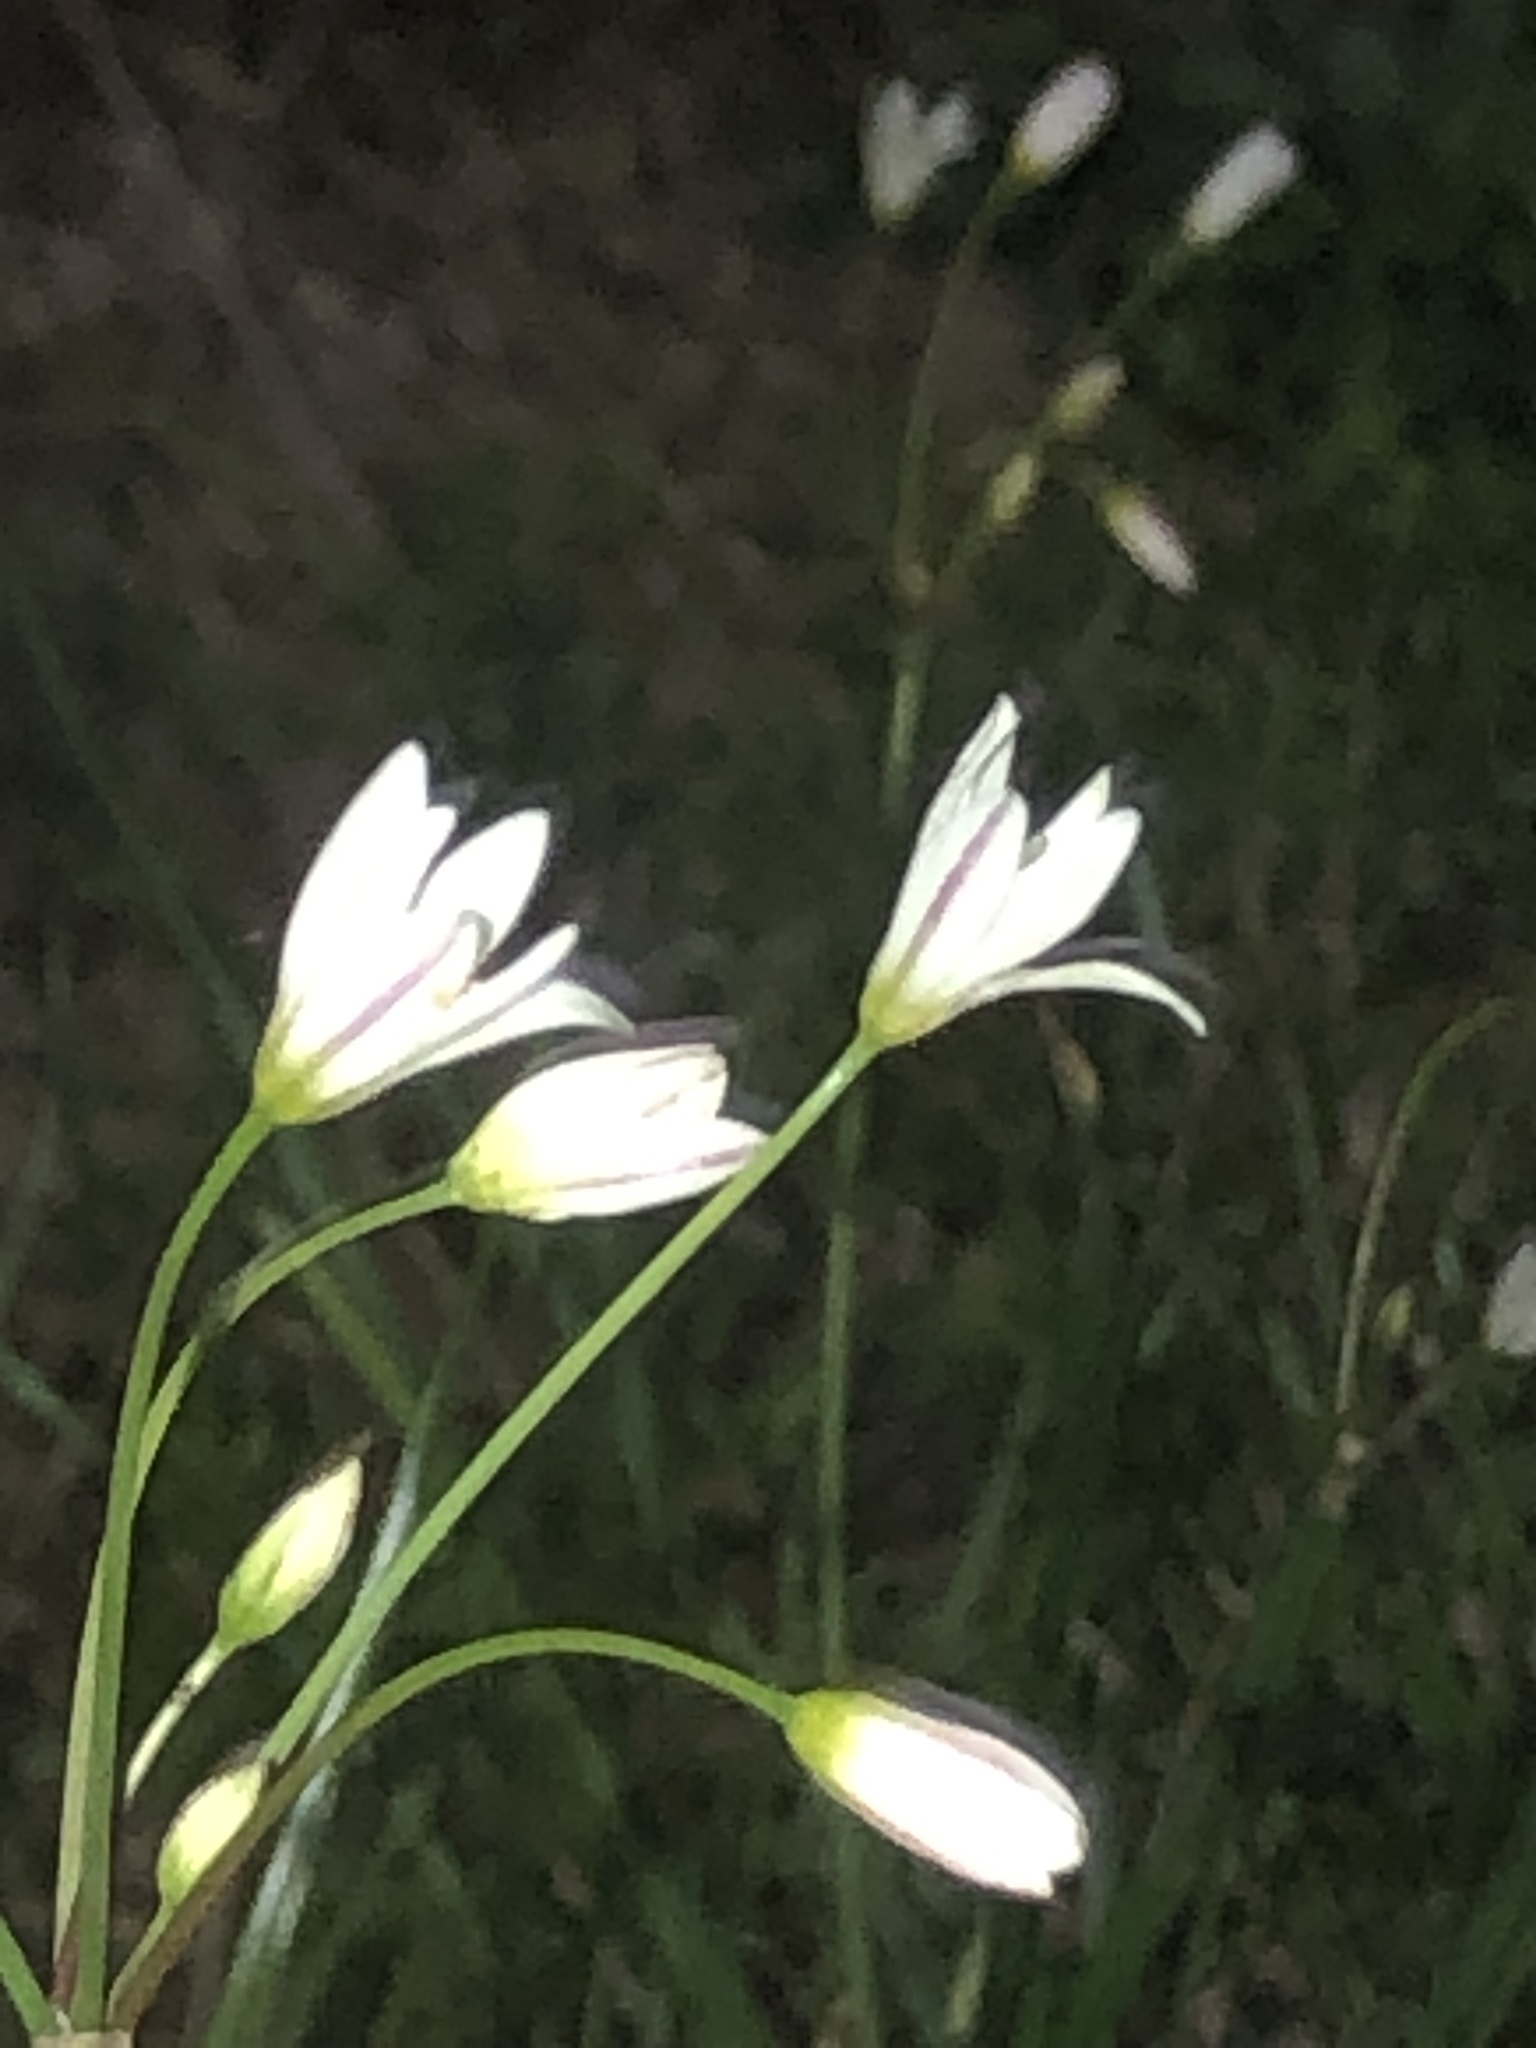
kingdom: Plantae
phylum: Tracheophyta
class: Liliopsida
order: Asparagales
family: Amaryllidaceae
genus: Nothoscordum
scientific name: Nothoscordum bivalve
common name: Crow-poison
